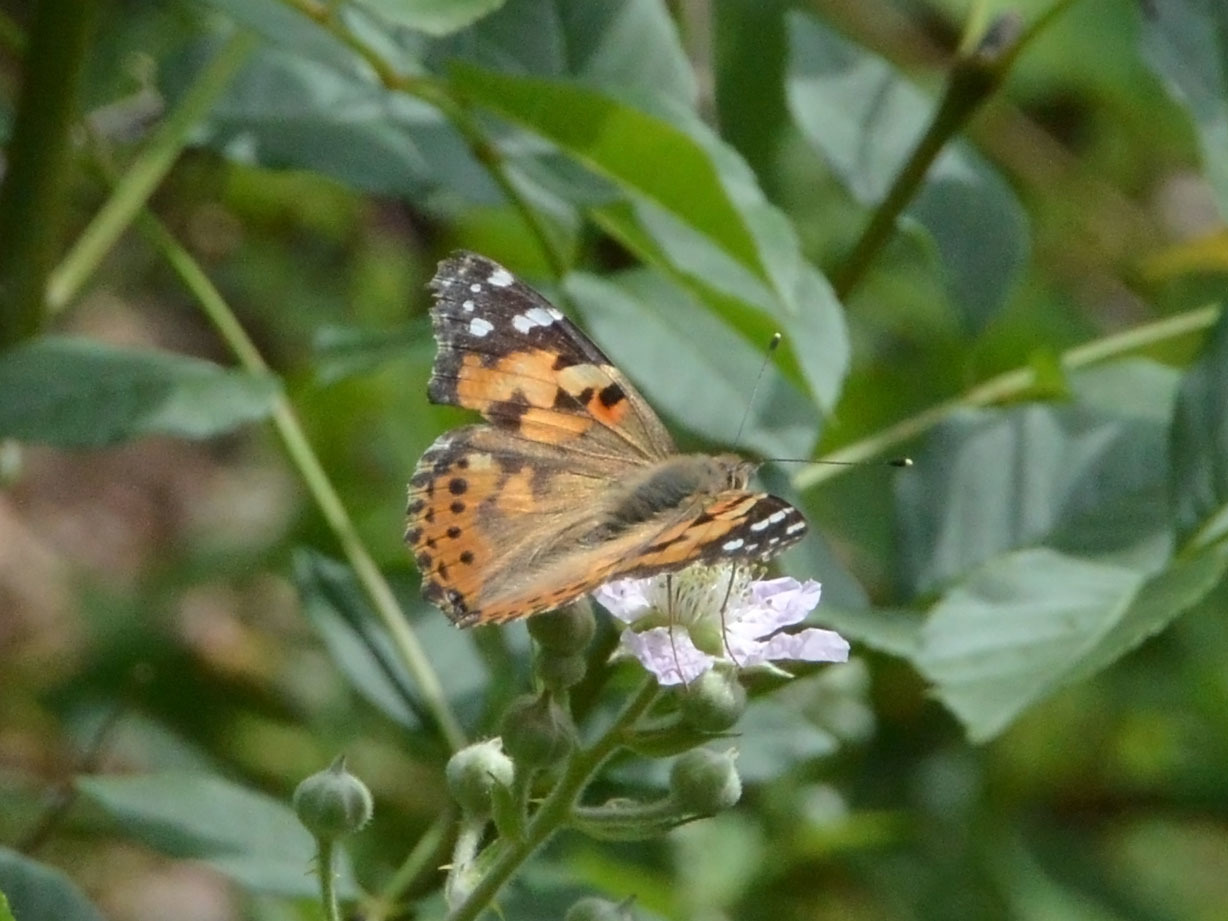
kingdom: Animalia
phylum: Arthropoda
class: Insecta
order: Lepidoptera
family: Nymphalidae
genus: Vanessa
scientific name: Vanessa cardui
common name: Painted lady
